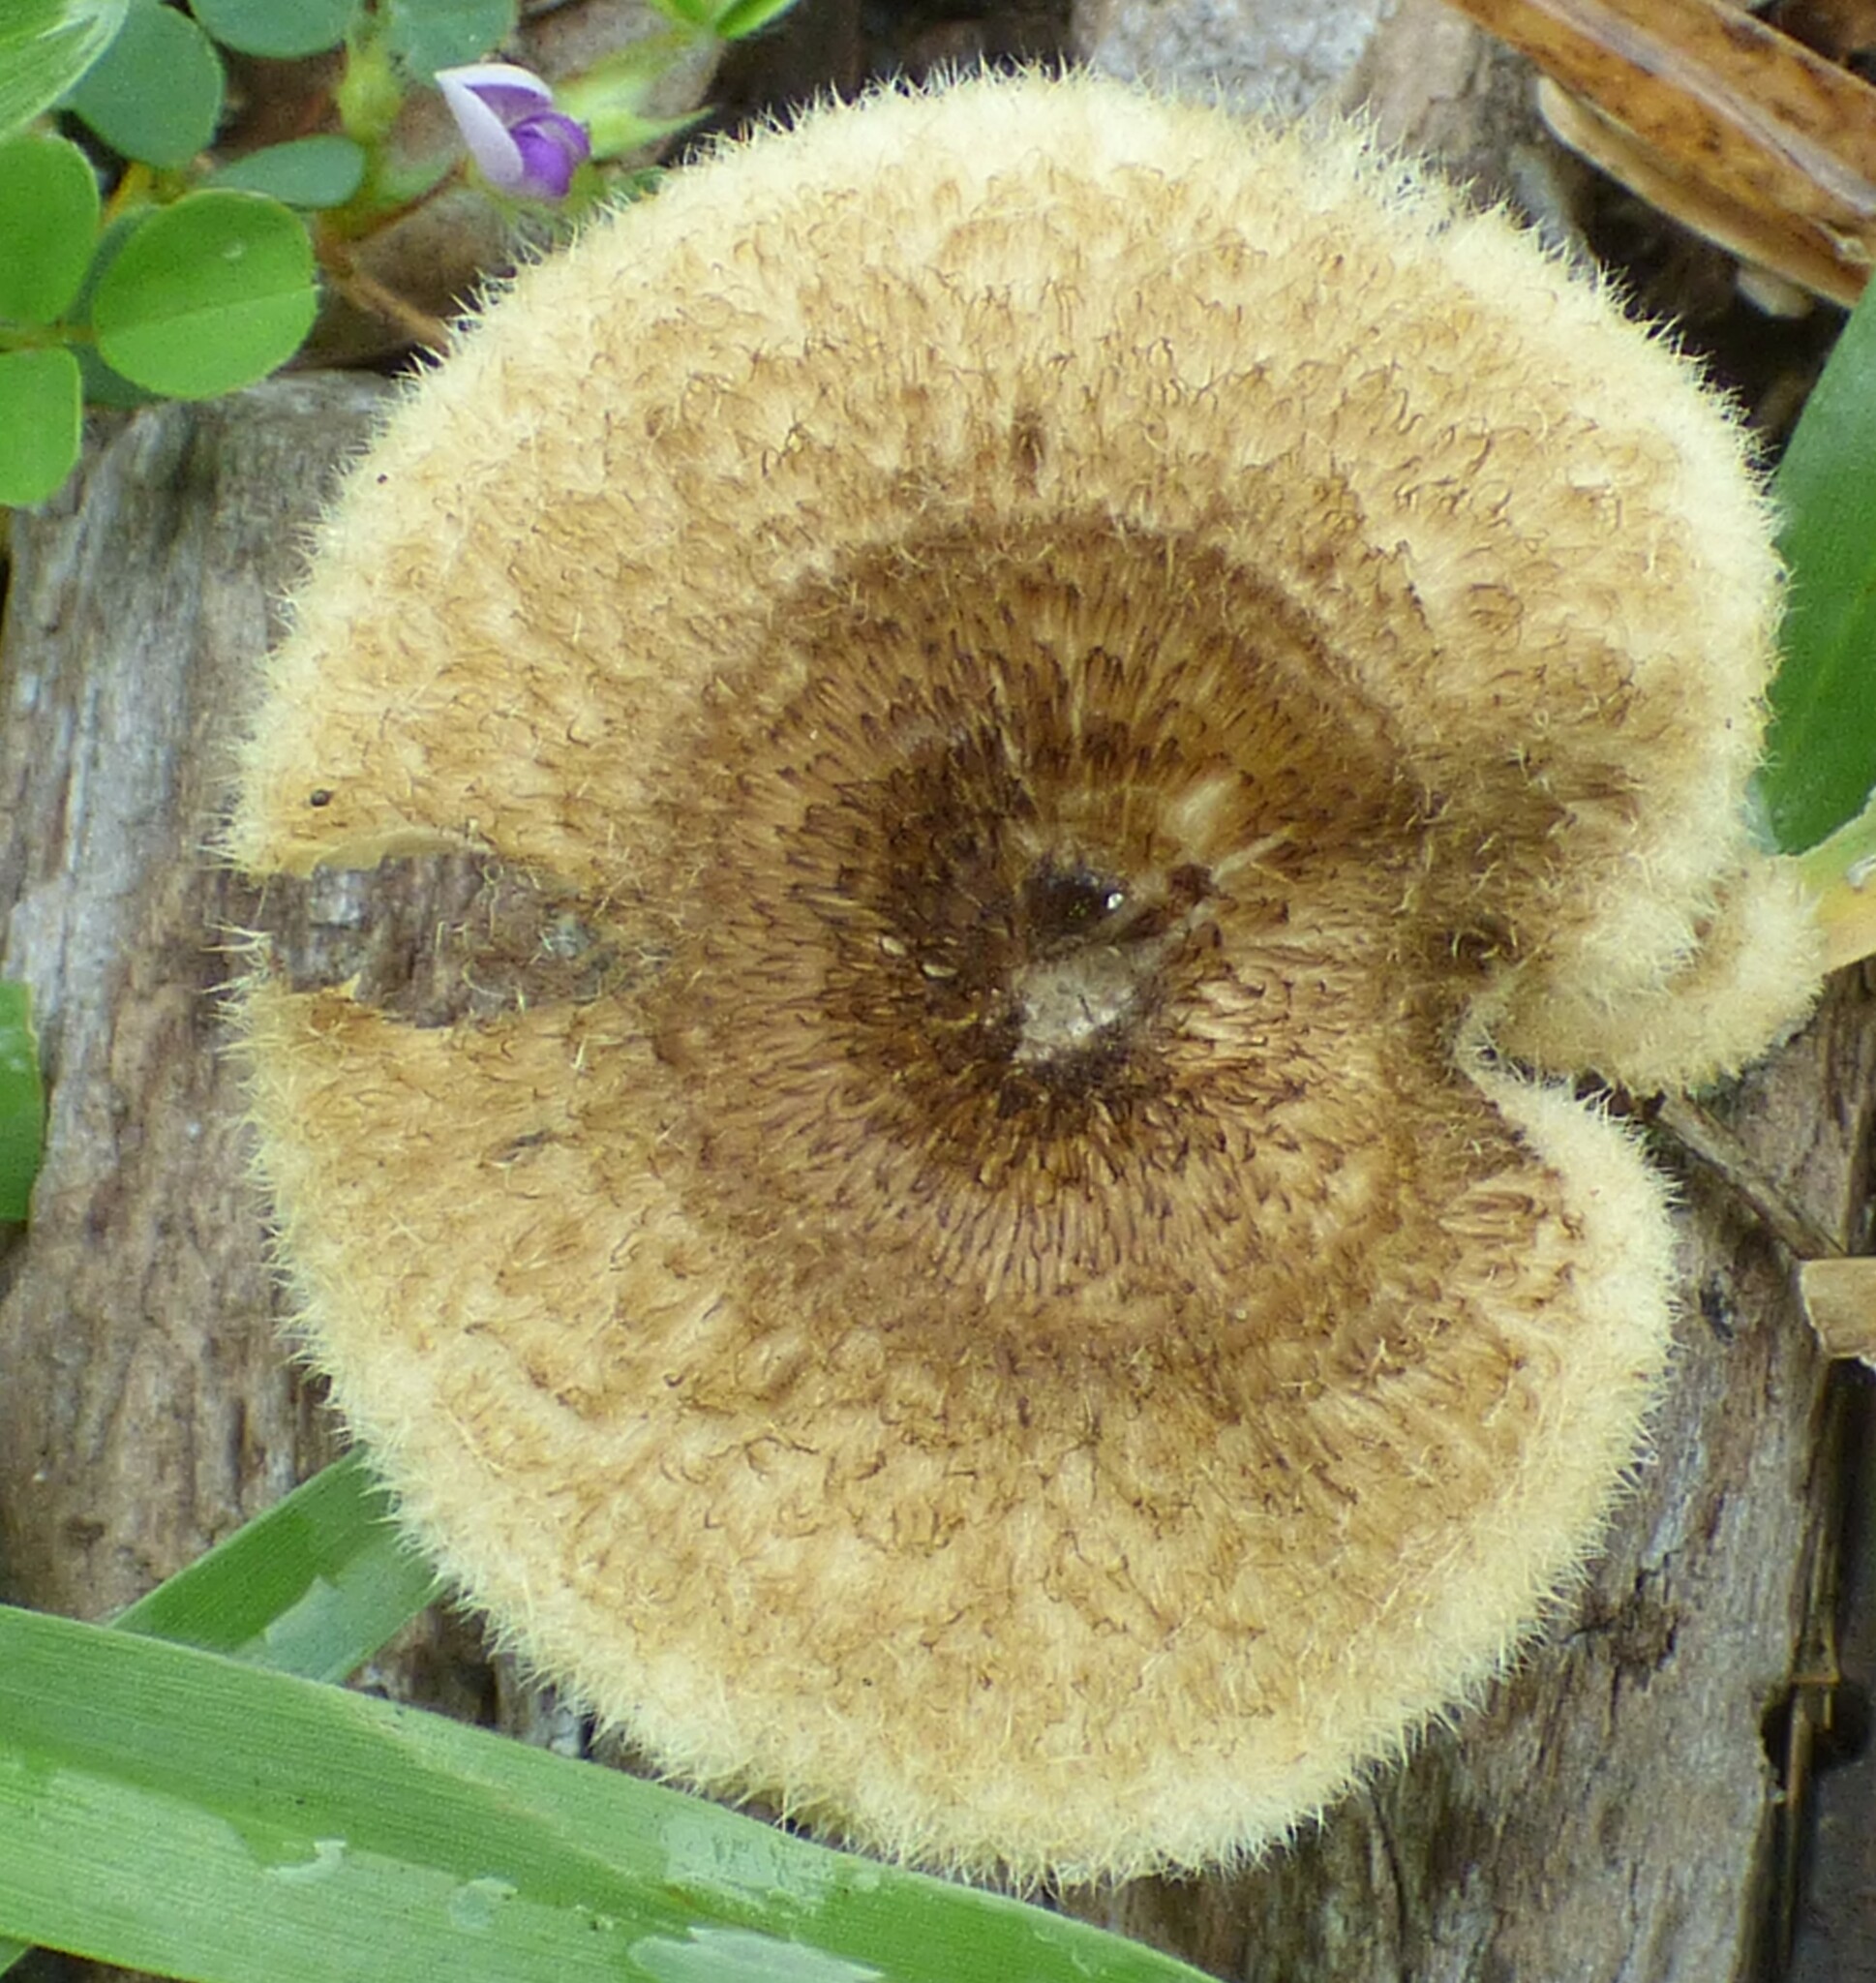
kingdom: Fungi
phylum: Basidiomycota
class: Agaricomycetes
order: Polyporales
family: Polyporaceae
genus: Lentinus
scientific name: Lentinus crinitus
